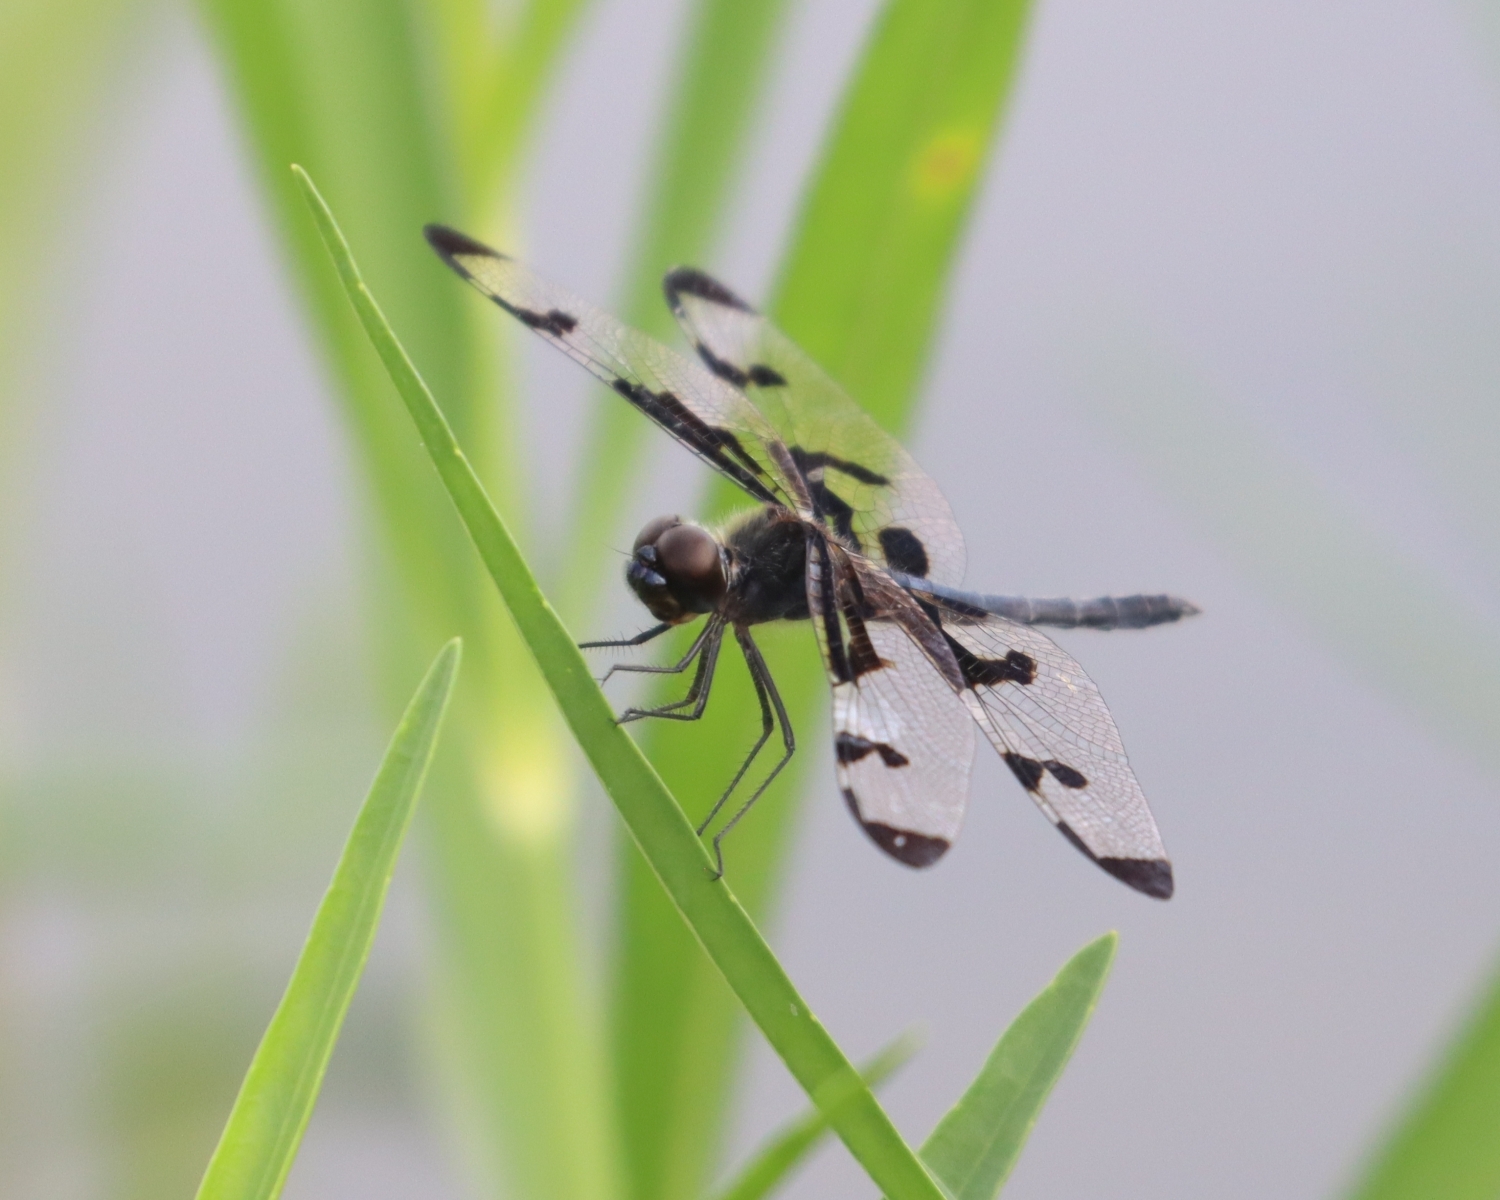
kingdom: Animalia
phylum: Arthropoda
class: Insecta
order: Odonata
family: Libellulidae
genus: Celithemis
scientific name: Celithemis fasciata
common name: Banded pennant
